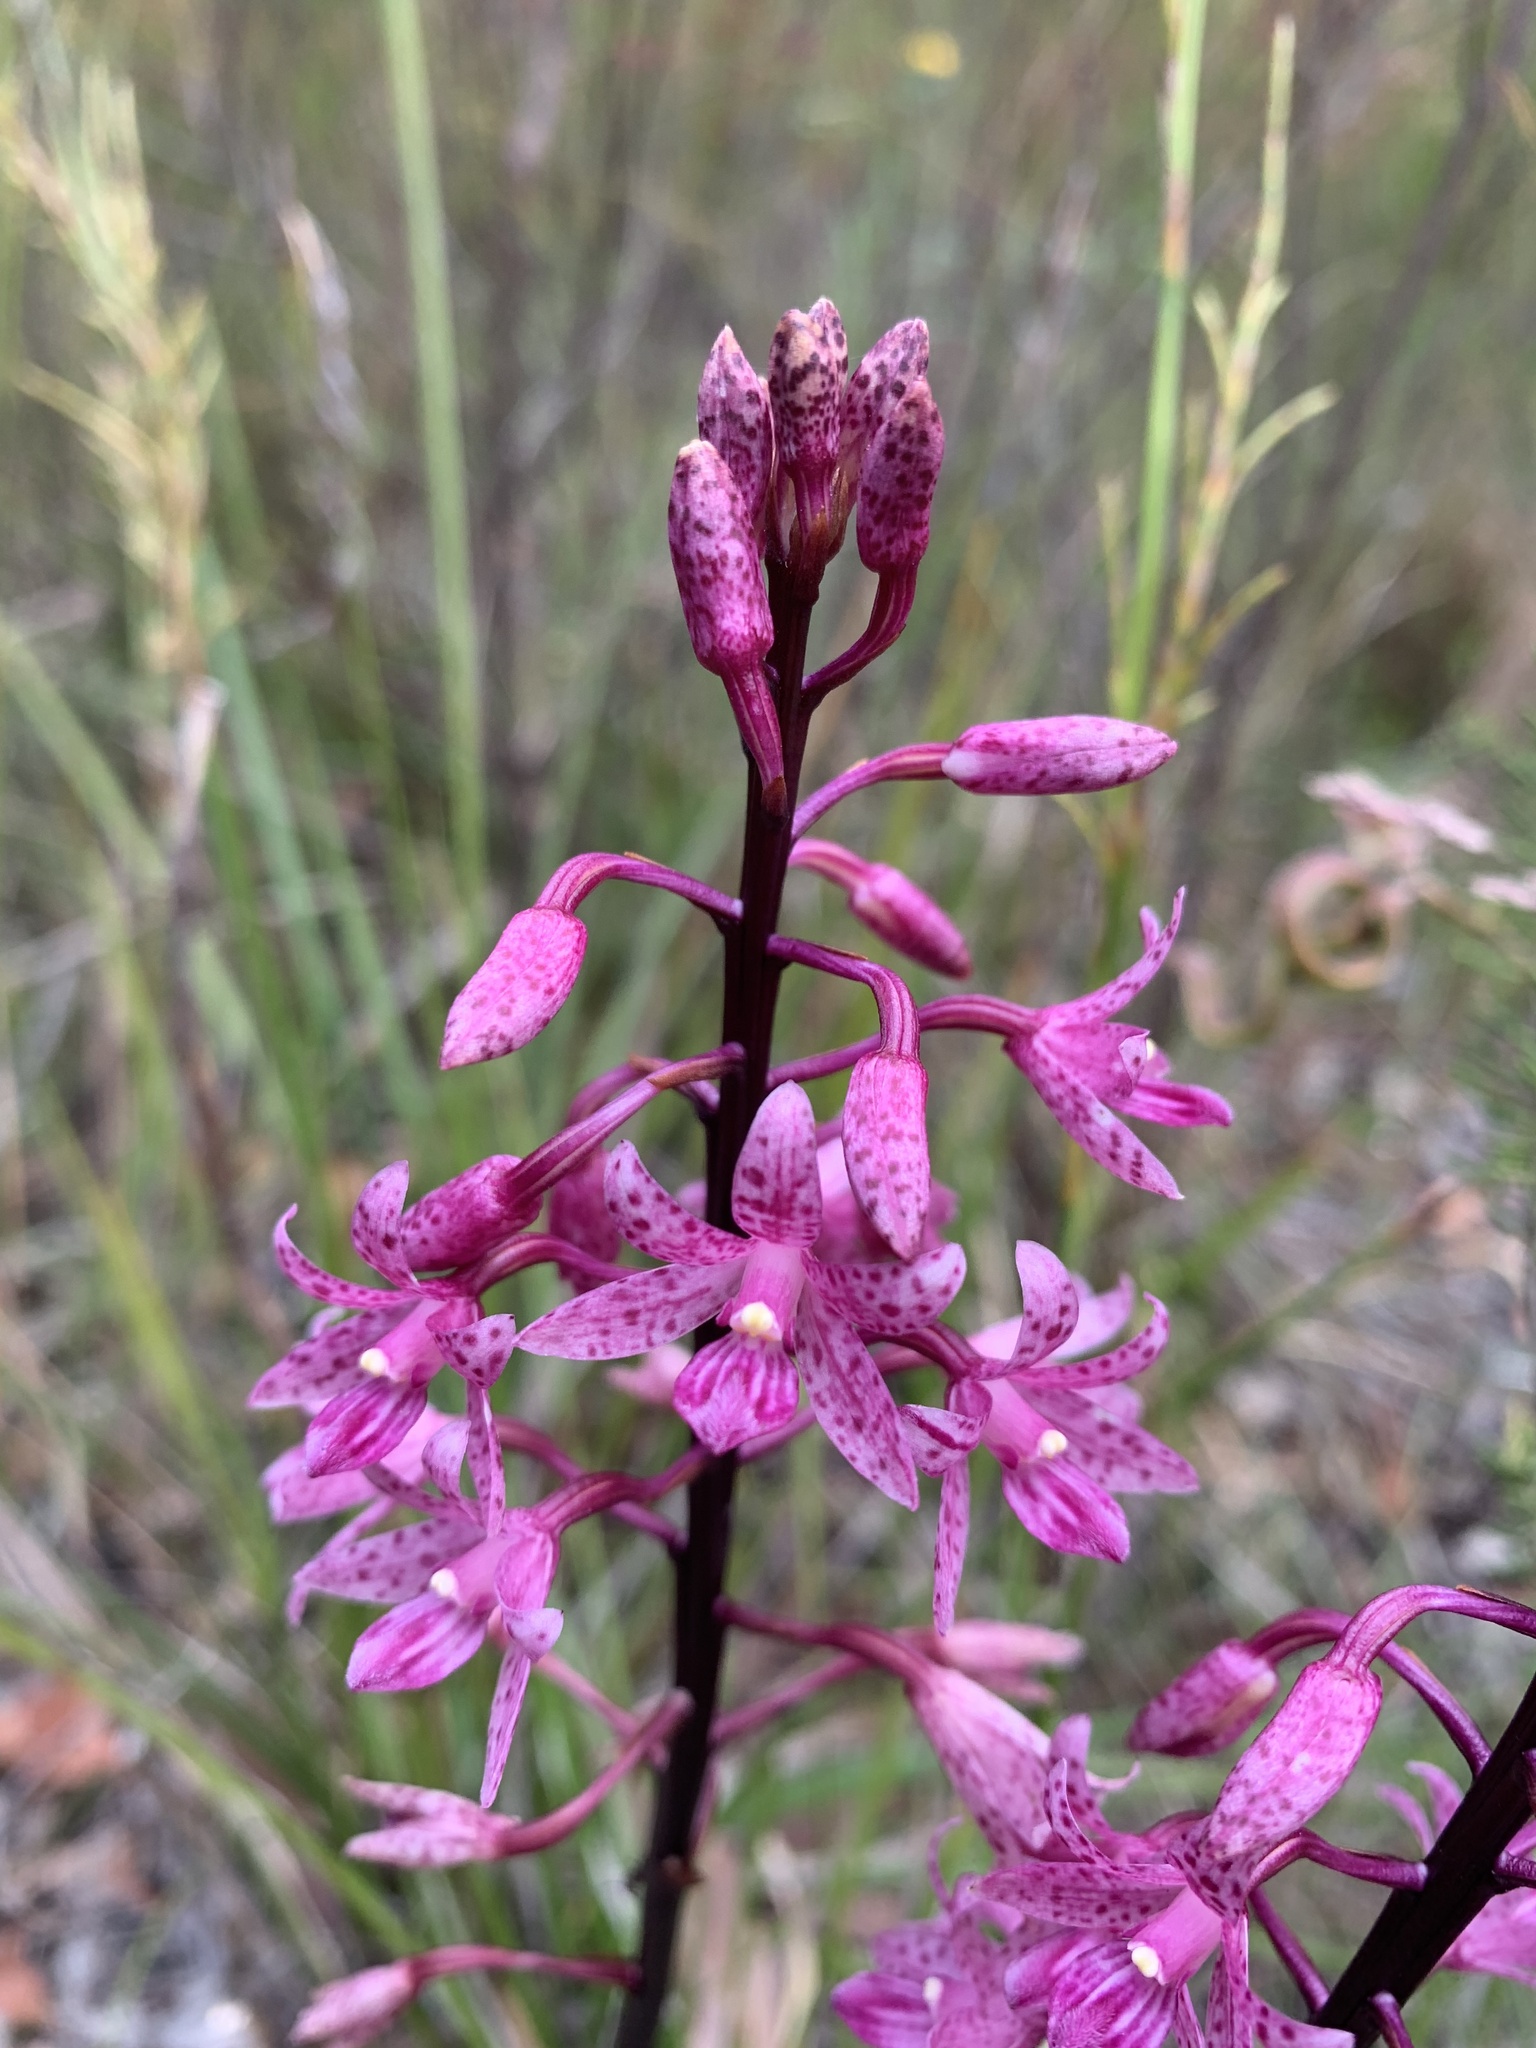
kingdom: Plantae
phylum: Tracheophyta
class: Liliopsida
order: Asparagales
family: Orchidaceae
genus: Dipodium
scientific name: Dipodium roseum
